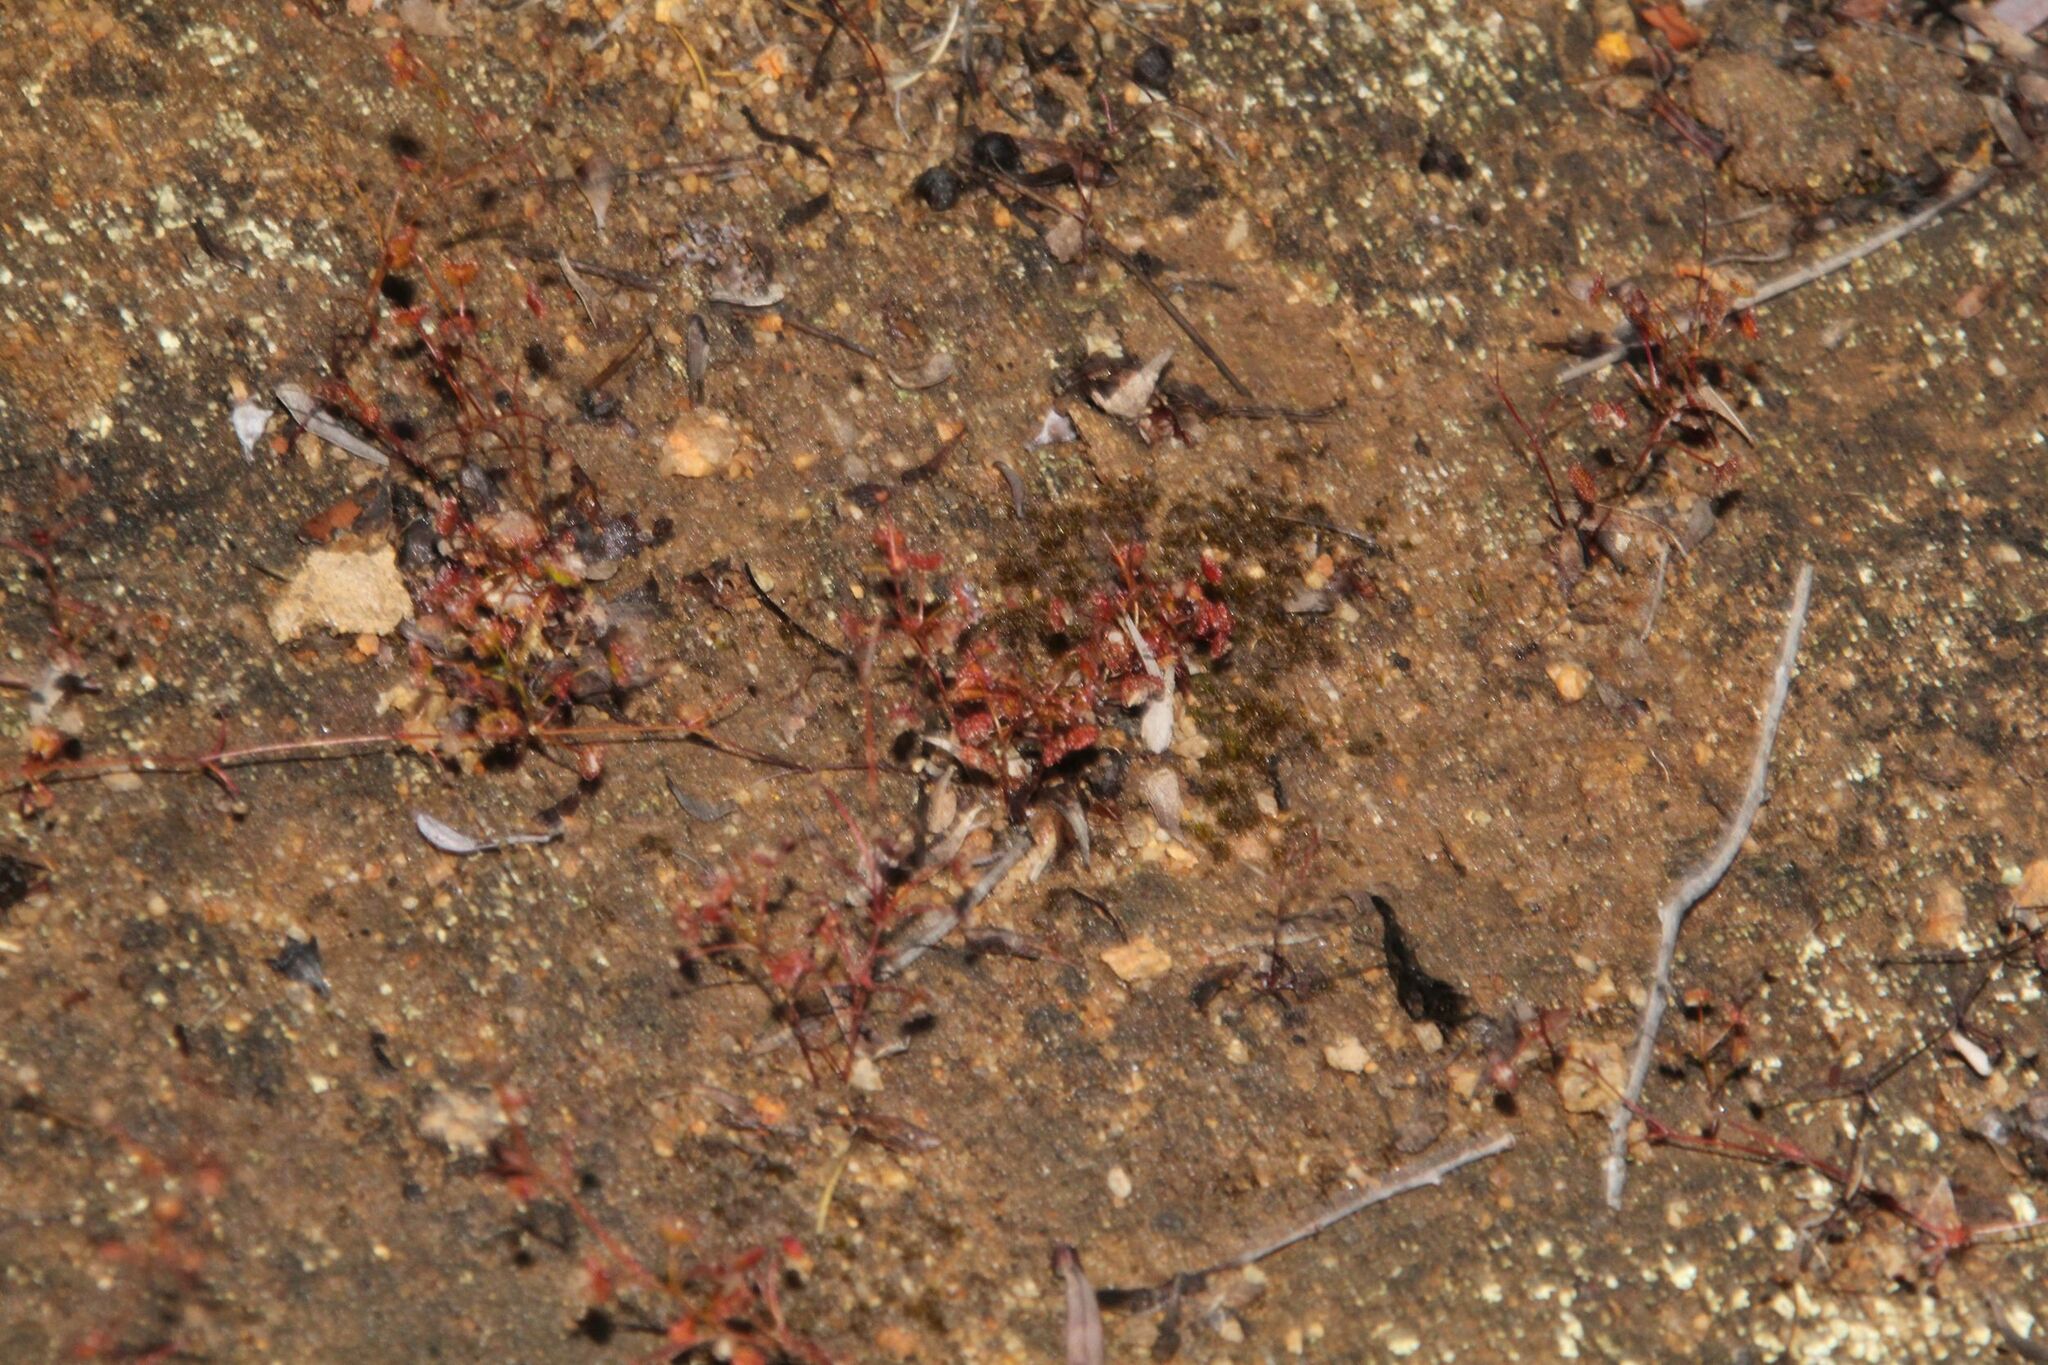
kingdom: Plantae
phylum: Tracheophyta
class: Magnoliopsida
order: Caryophyllales
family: Droseraceae
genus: Drosera
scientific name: Drosera moorei
